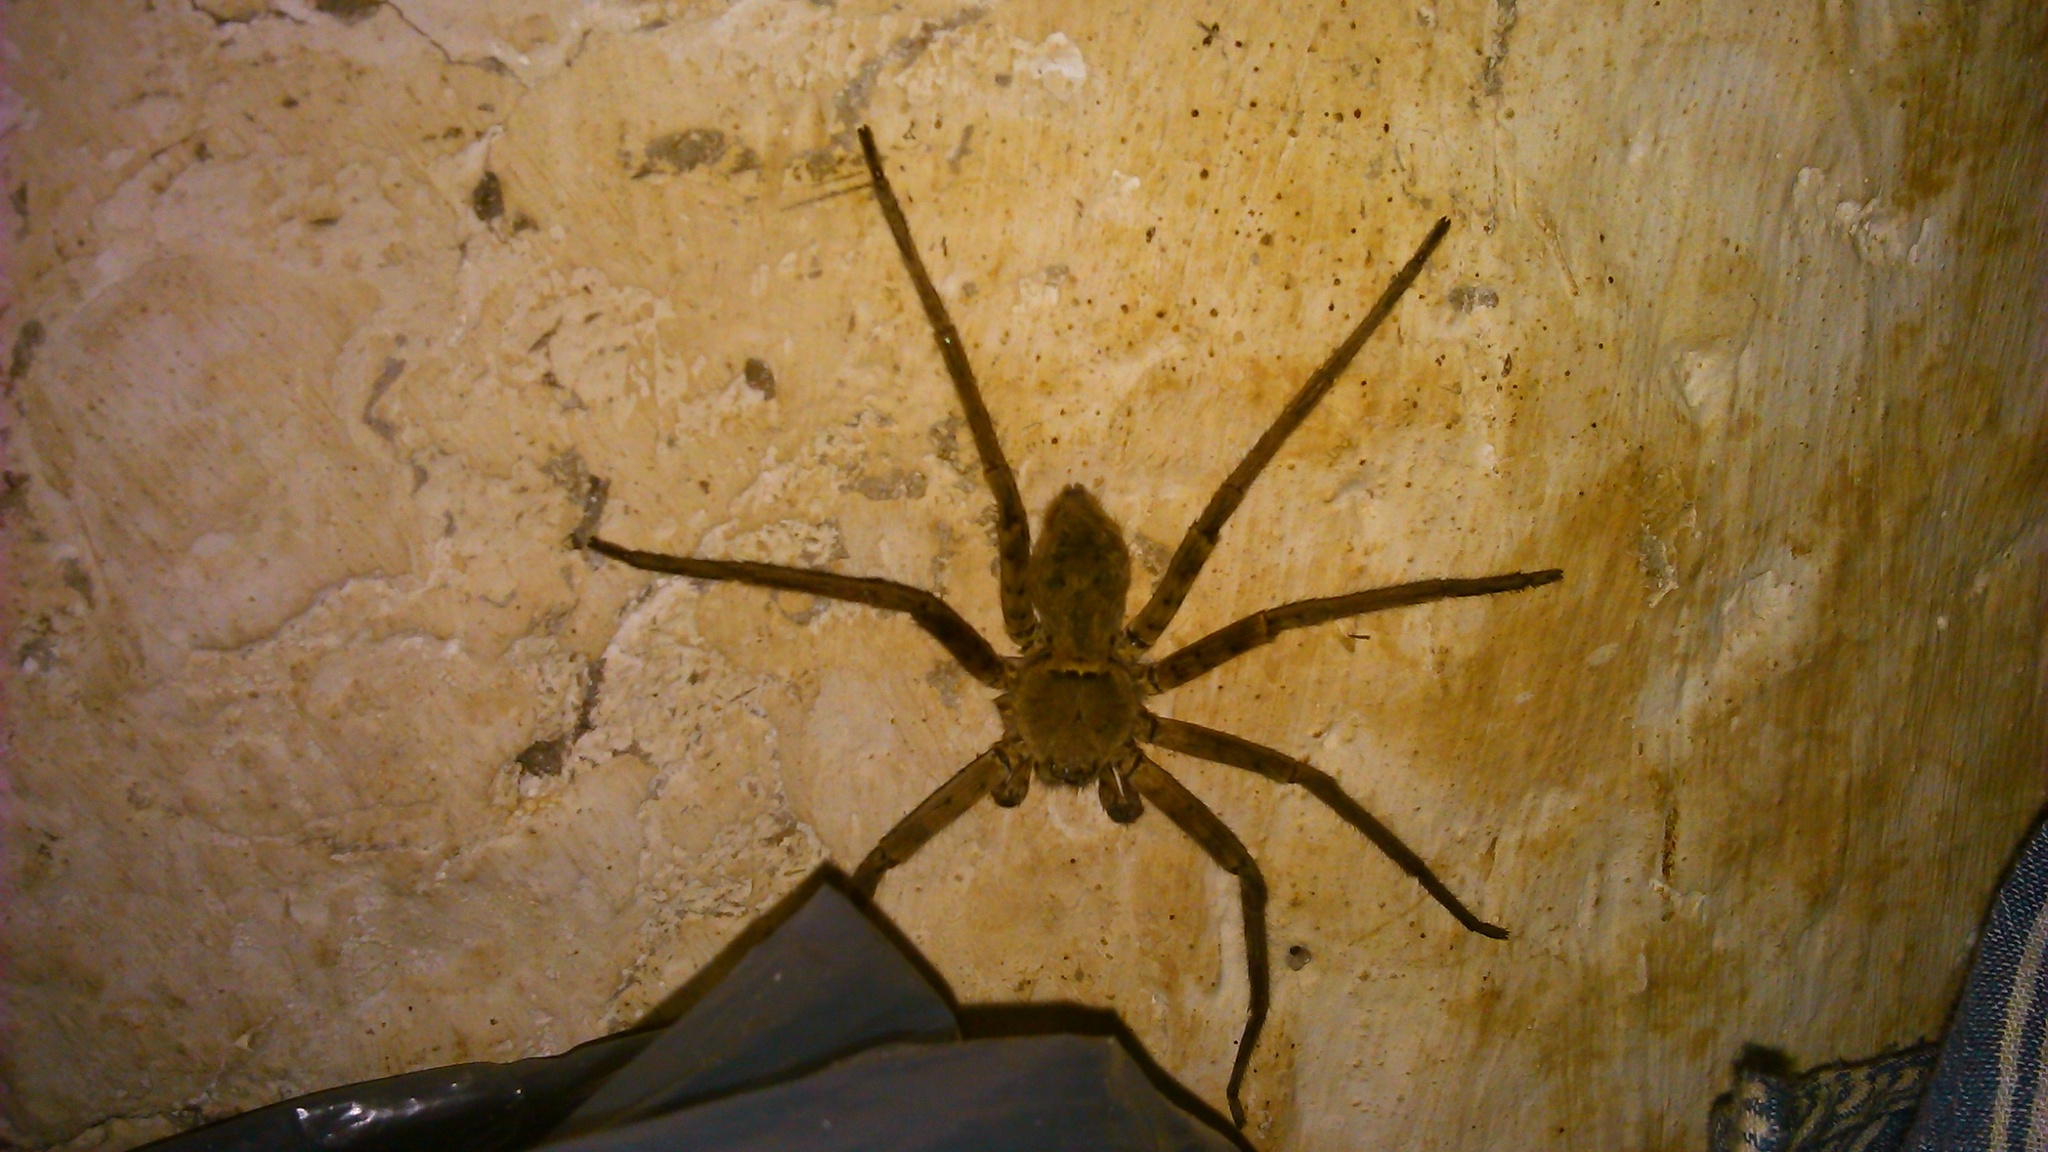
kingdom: Animalia
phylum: Arthropoda
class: Arachnida
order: Araneae
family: Sparassidae
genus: Heteropoda
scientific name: Heteropoda venatoria
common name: Huntsman spider
